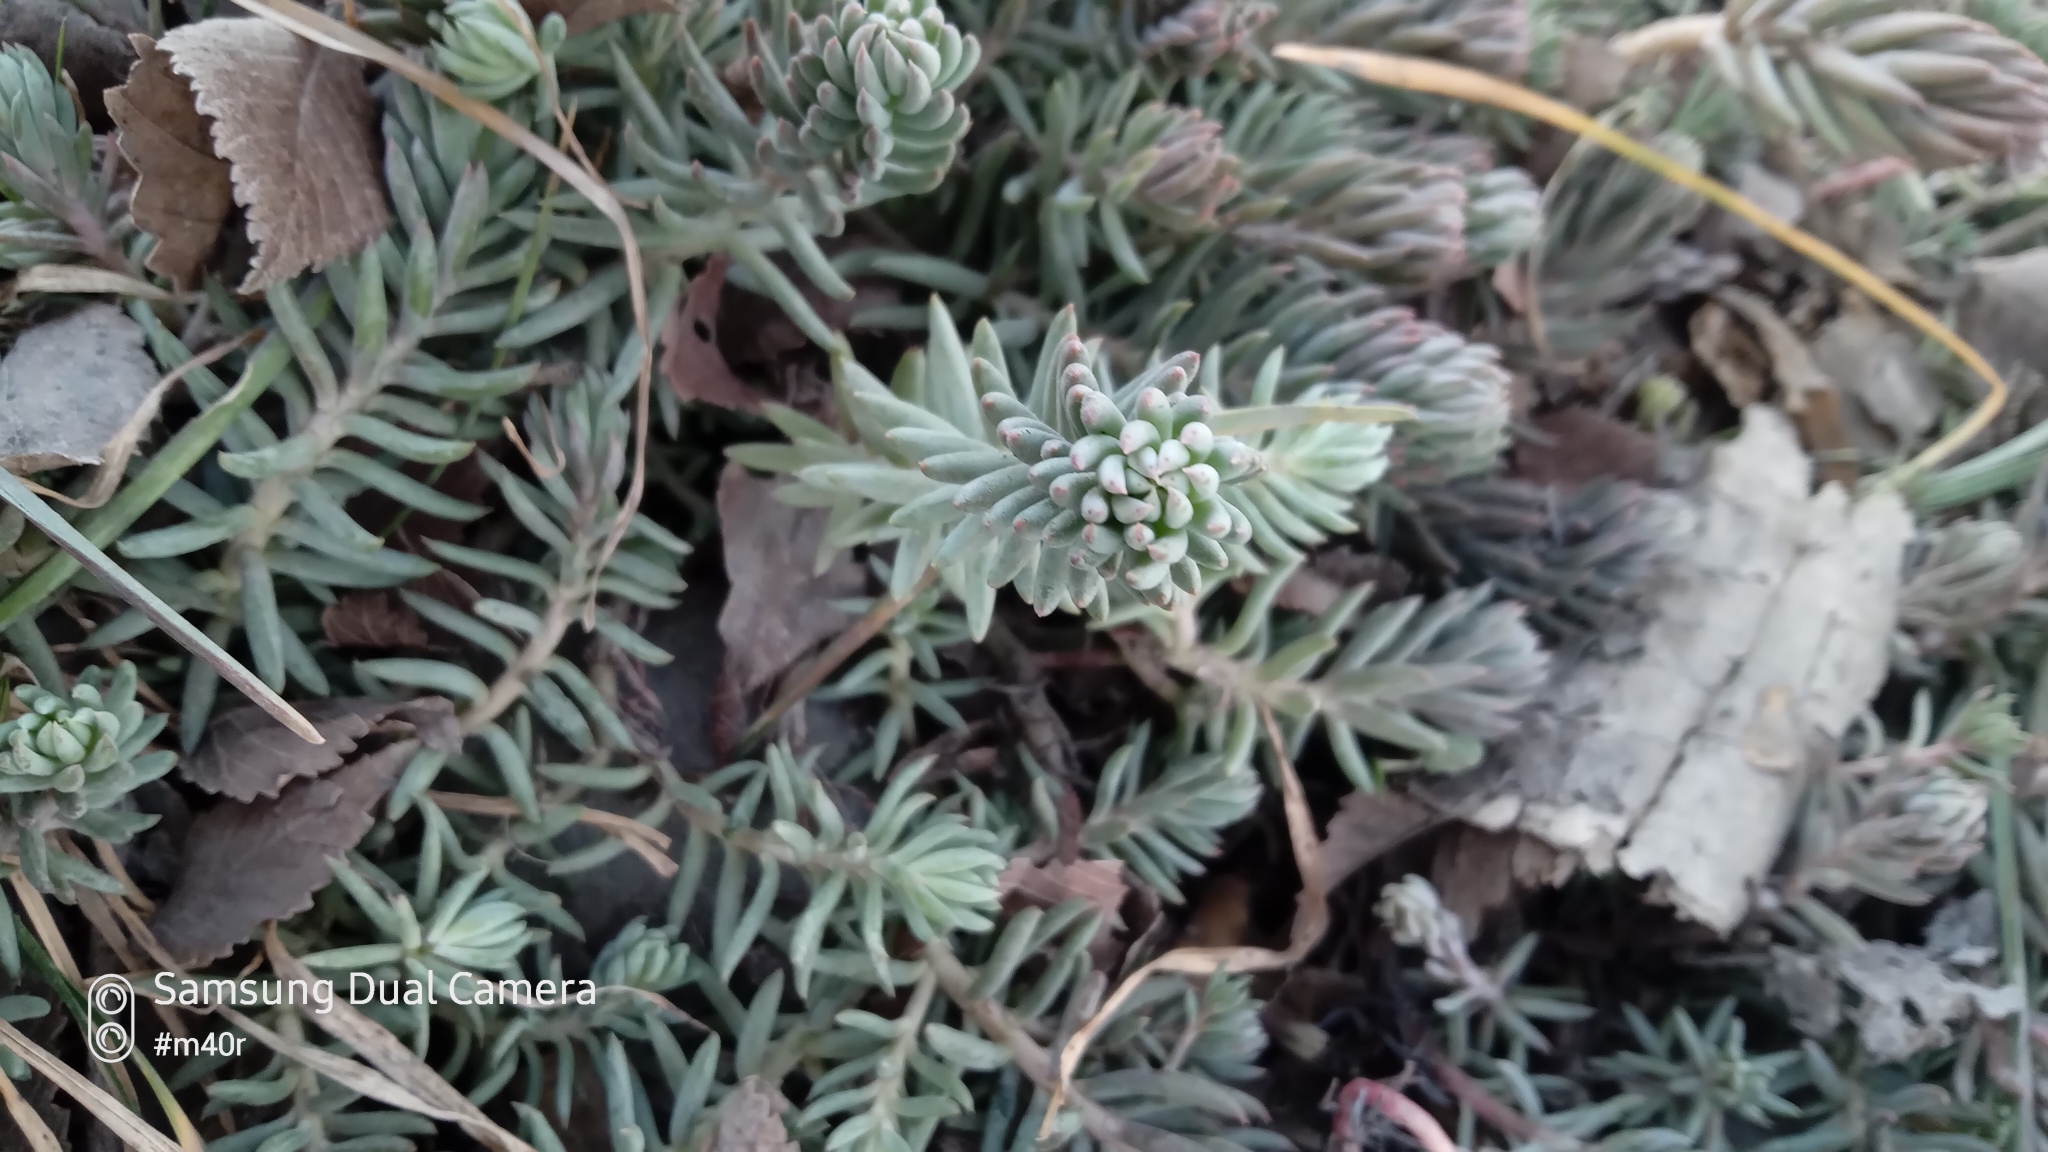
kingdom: Plantae
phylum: Tracheophyta
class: Magnoliopsida
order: Saxifragales
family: Crassulaceae
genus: Petrosedum
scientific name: Petrosedum
